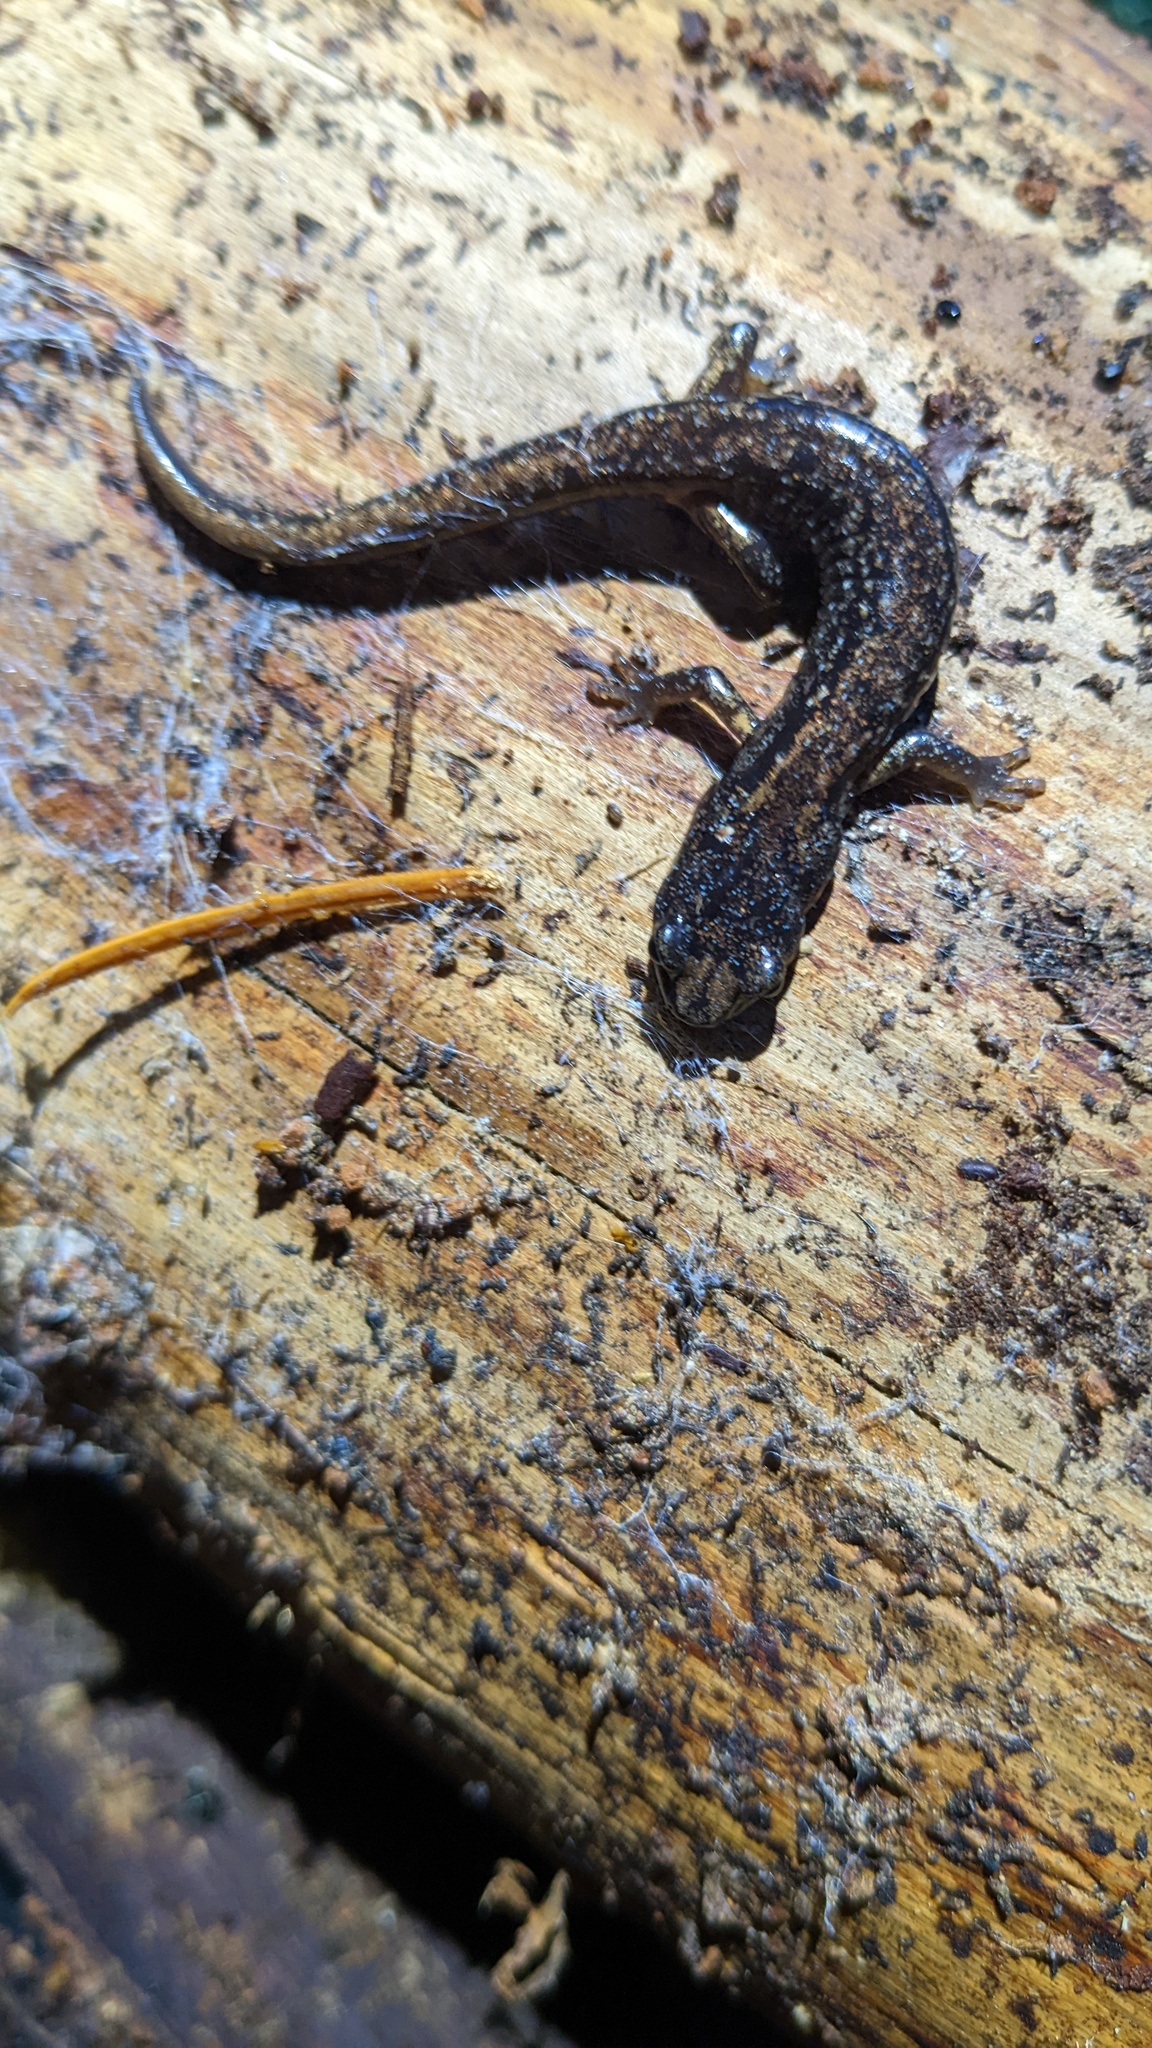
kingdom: Animalia
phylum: Chordata
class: Amphibia
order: Caudata
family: Plethodontidae
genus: Aneides
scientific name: Aneides vagrans
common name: Wandering salamander
